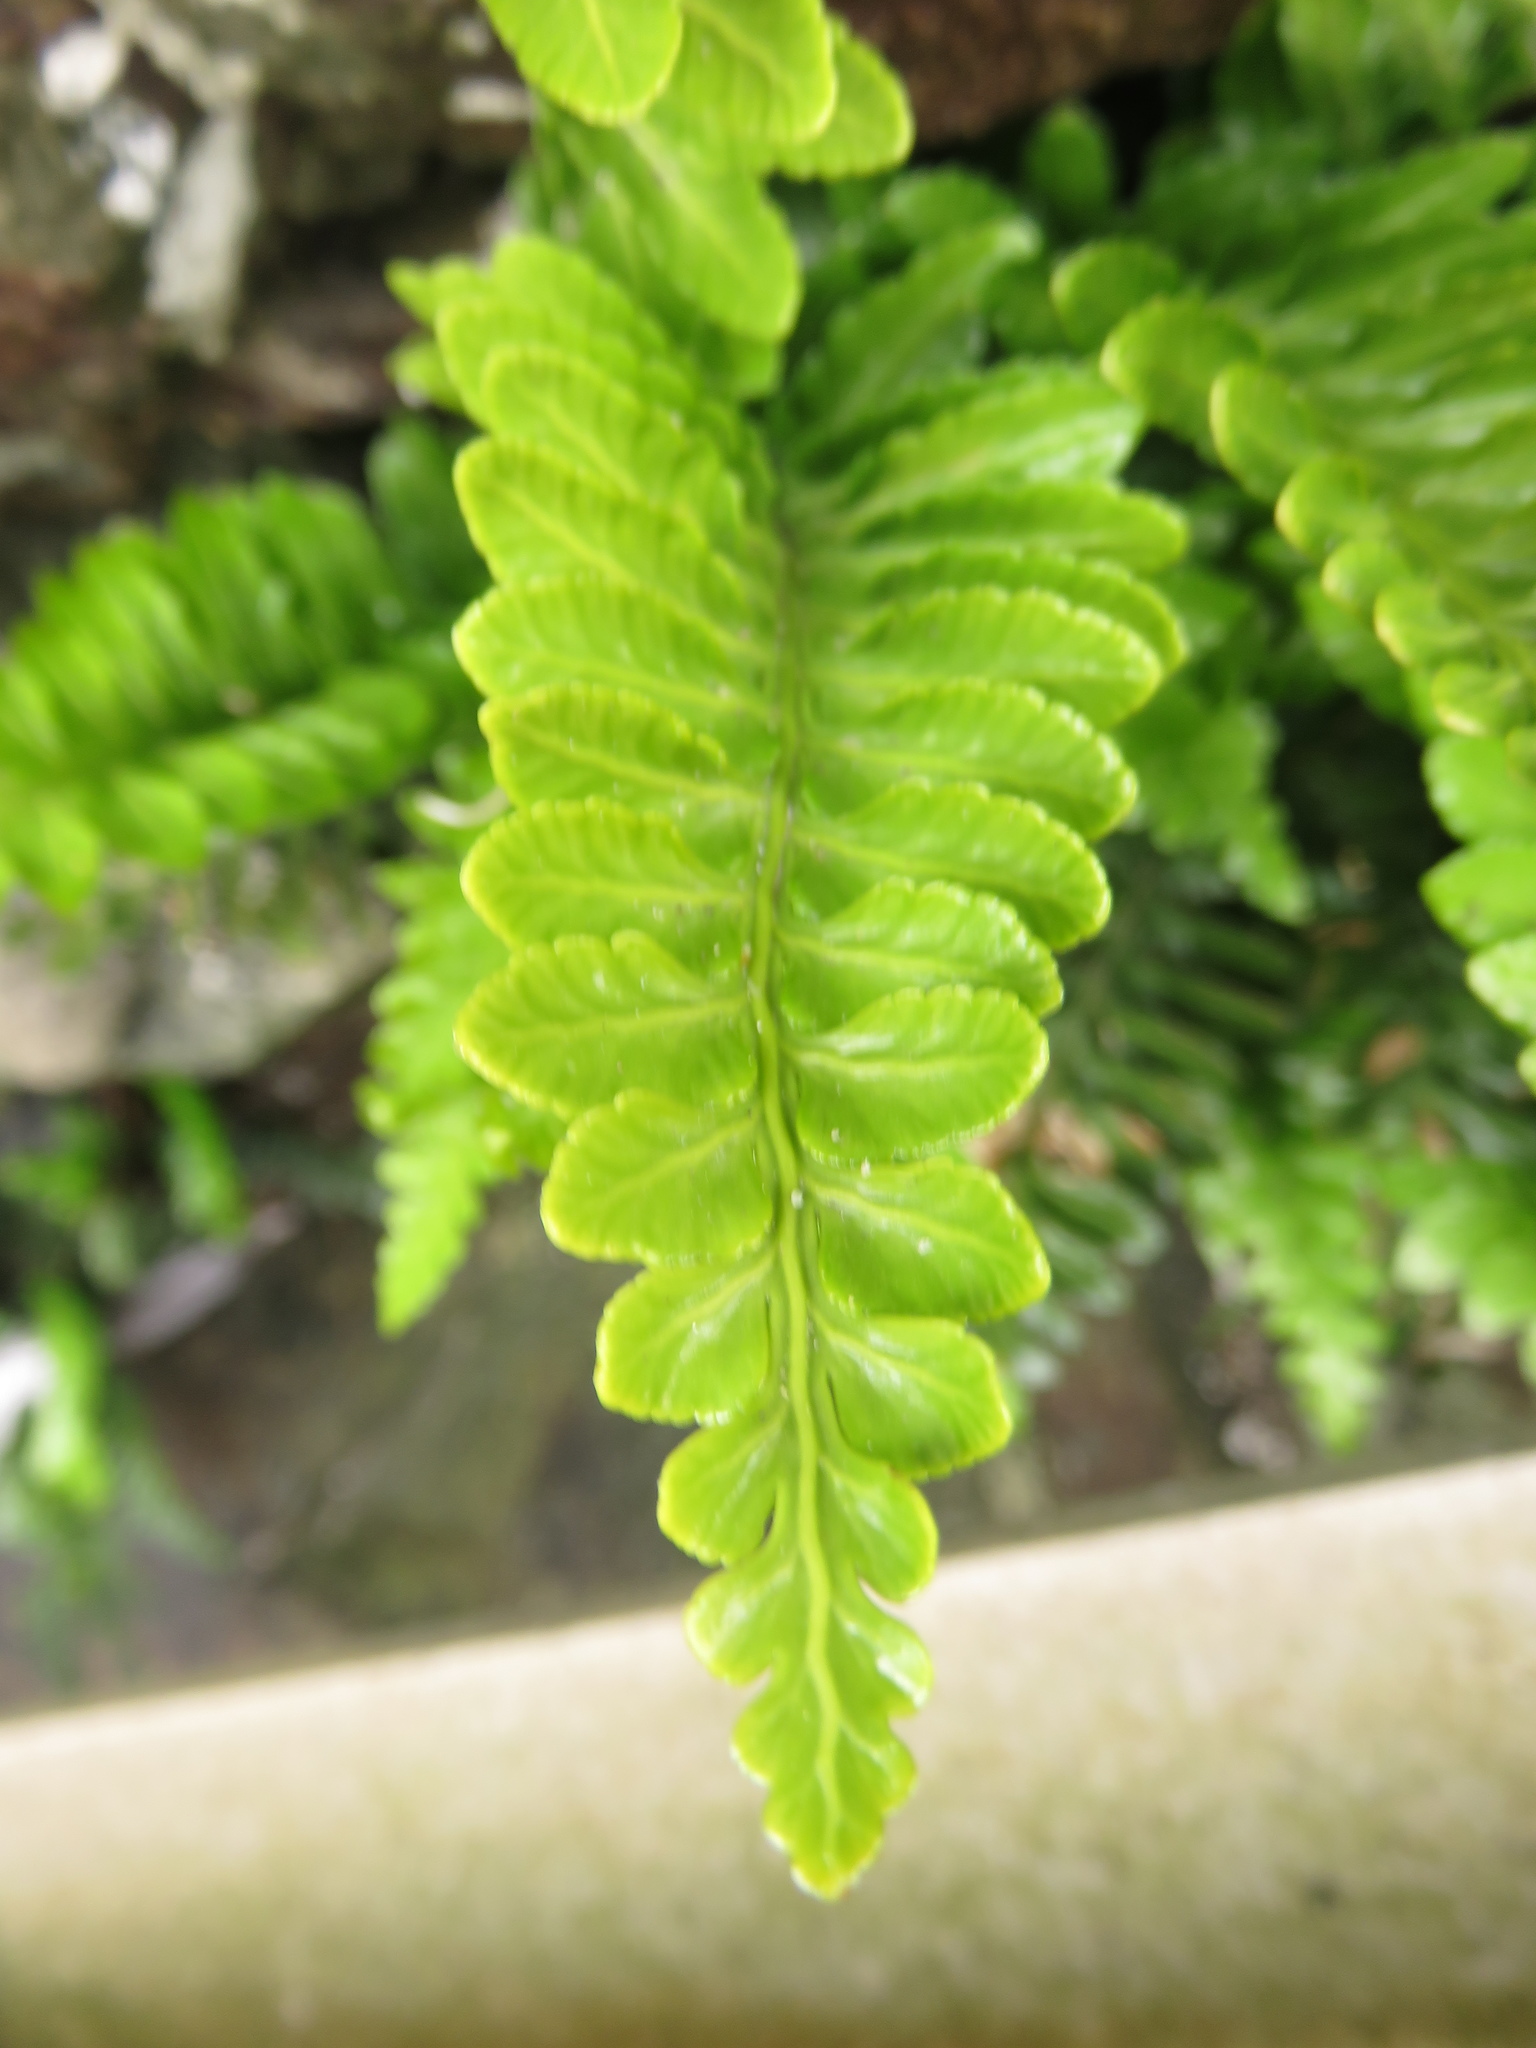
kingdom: Plantae
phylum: Tracheophyta
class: Polypodiopsida
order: Polypodiales
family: Aspleniaceae
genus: Asplenium
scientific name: Asplenium marinum
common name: Sea spleenwort
